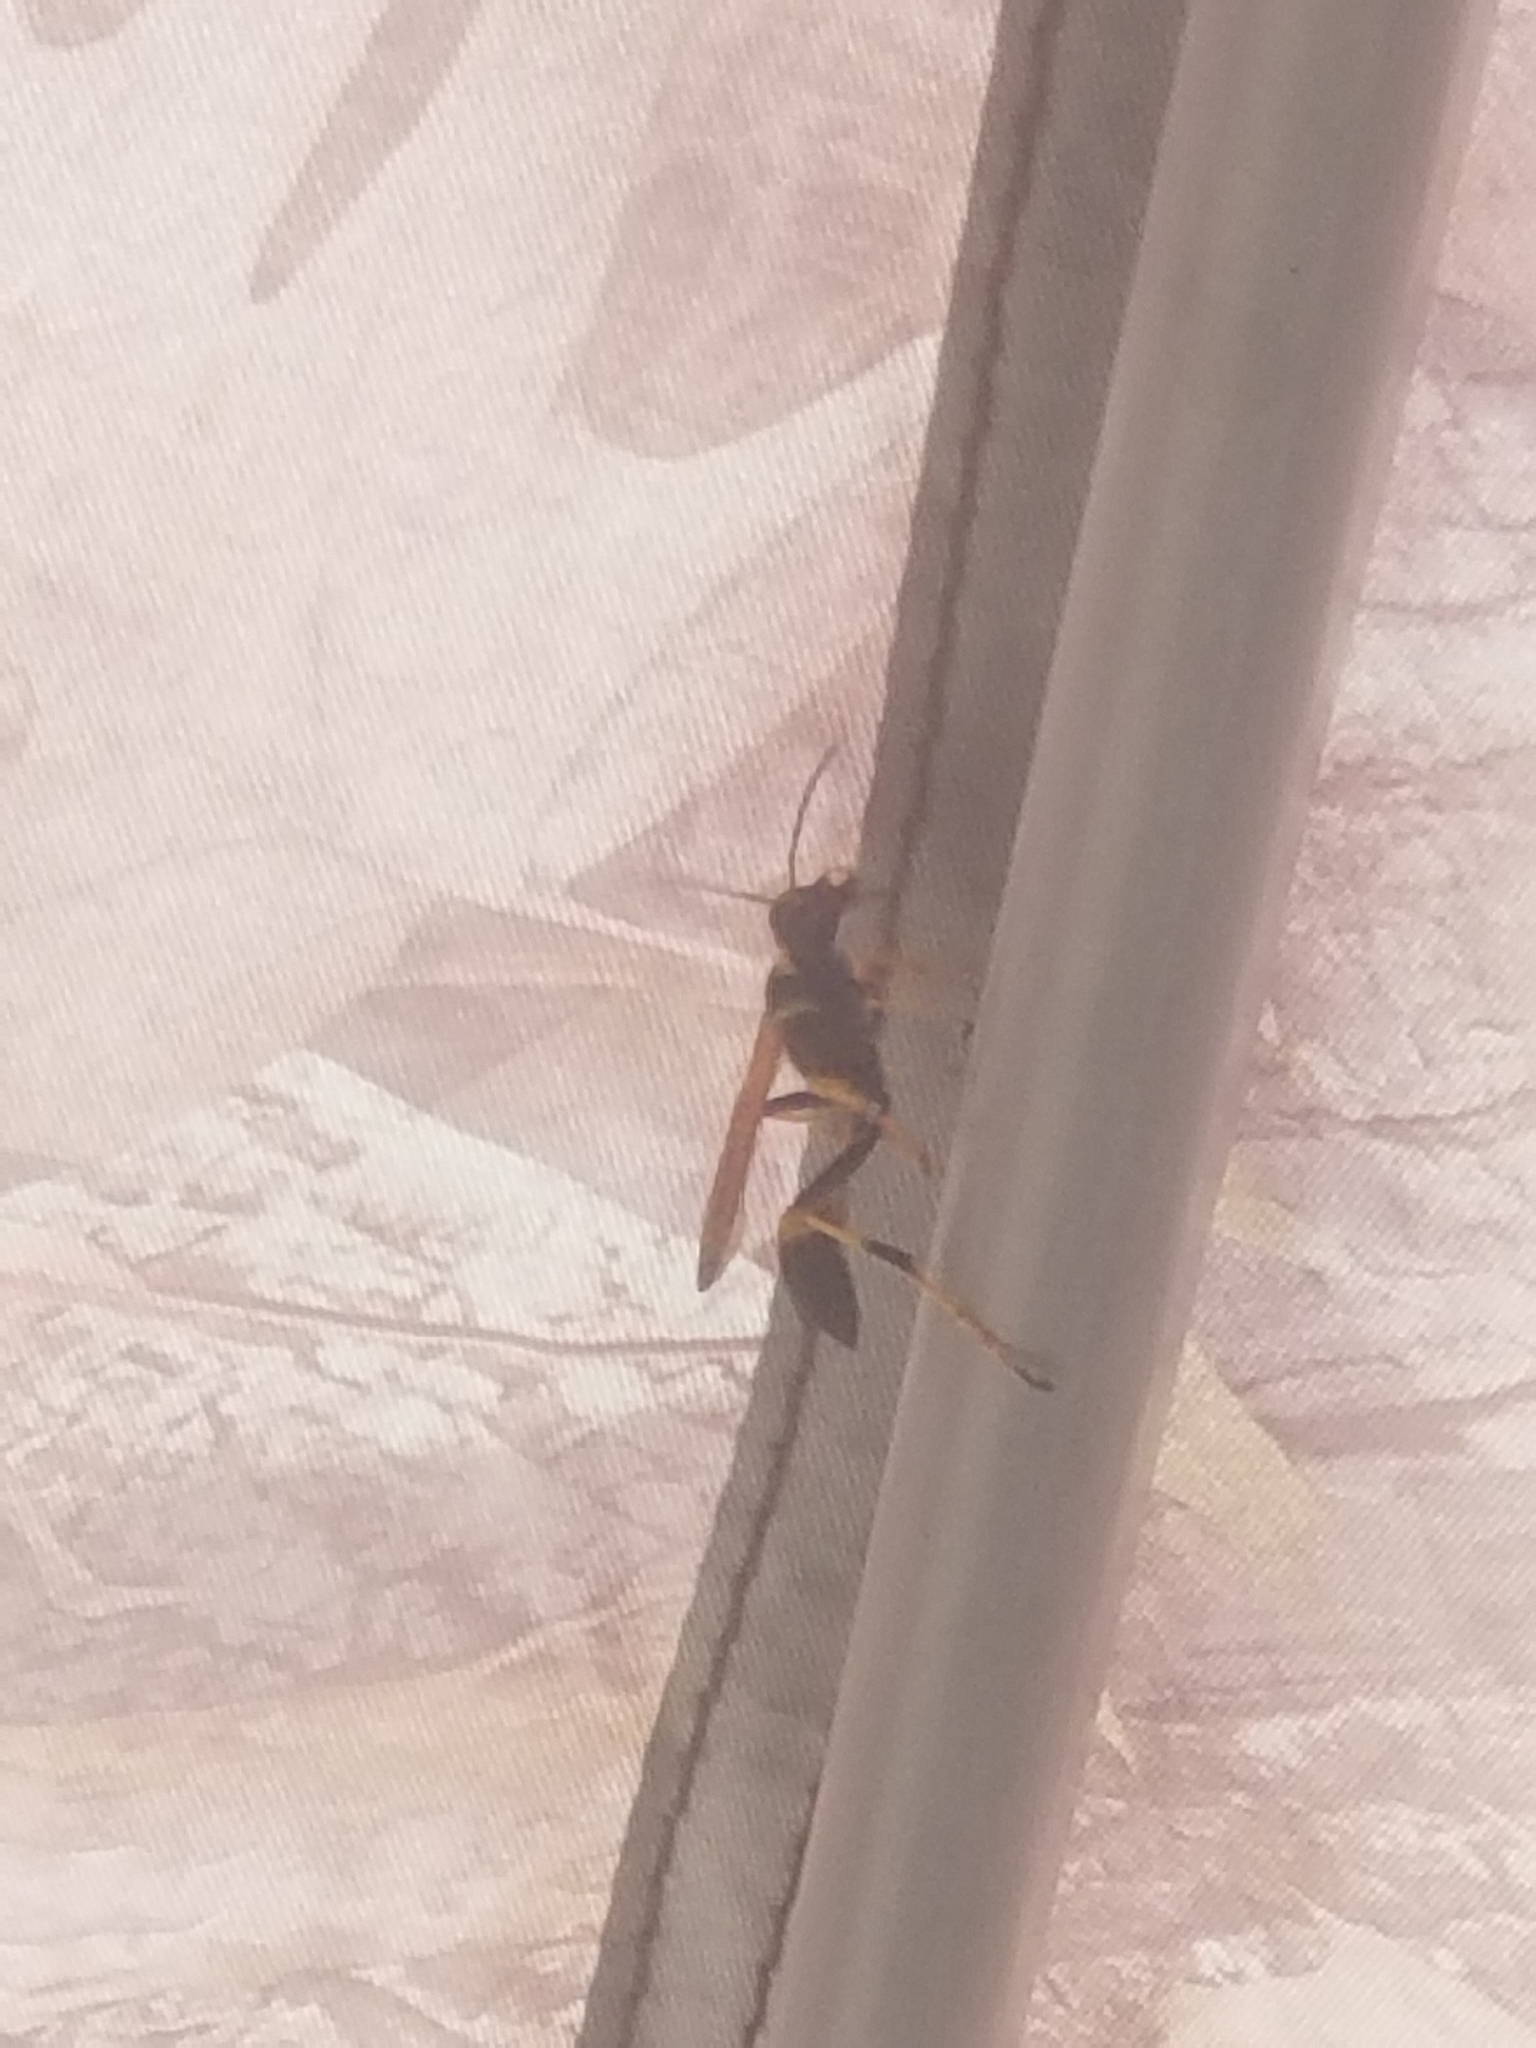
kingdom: Animalia
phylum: Arthropoda
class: Insecta
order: Hymenoptera
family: Sphecidae
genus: Sceliphron
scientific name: Sceliphron caementarium
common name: Mud dauber
